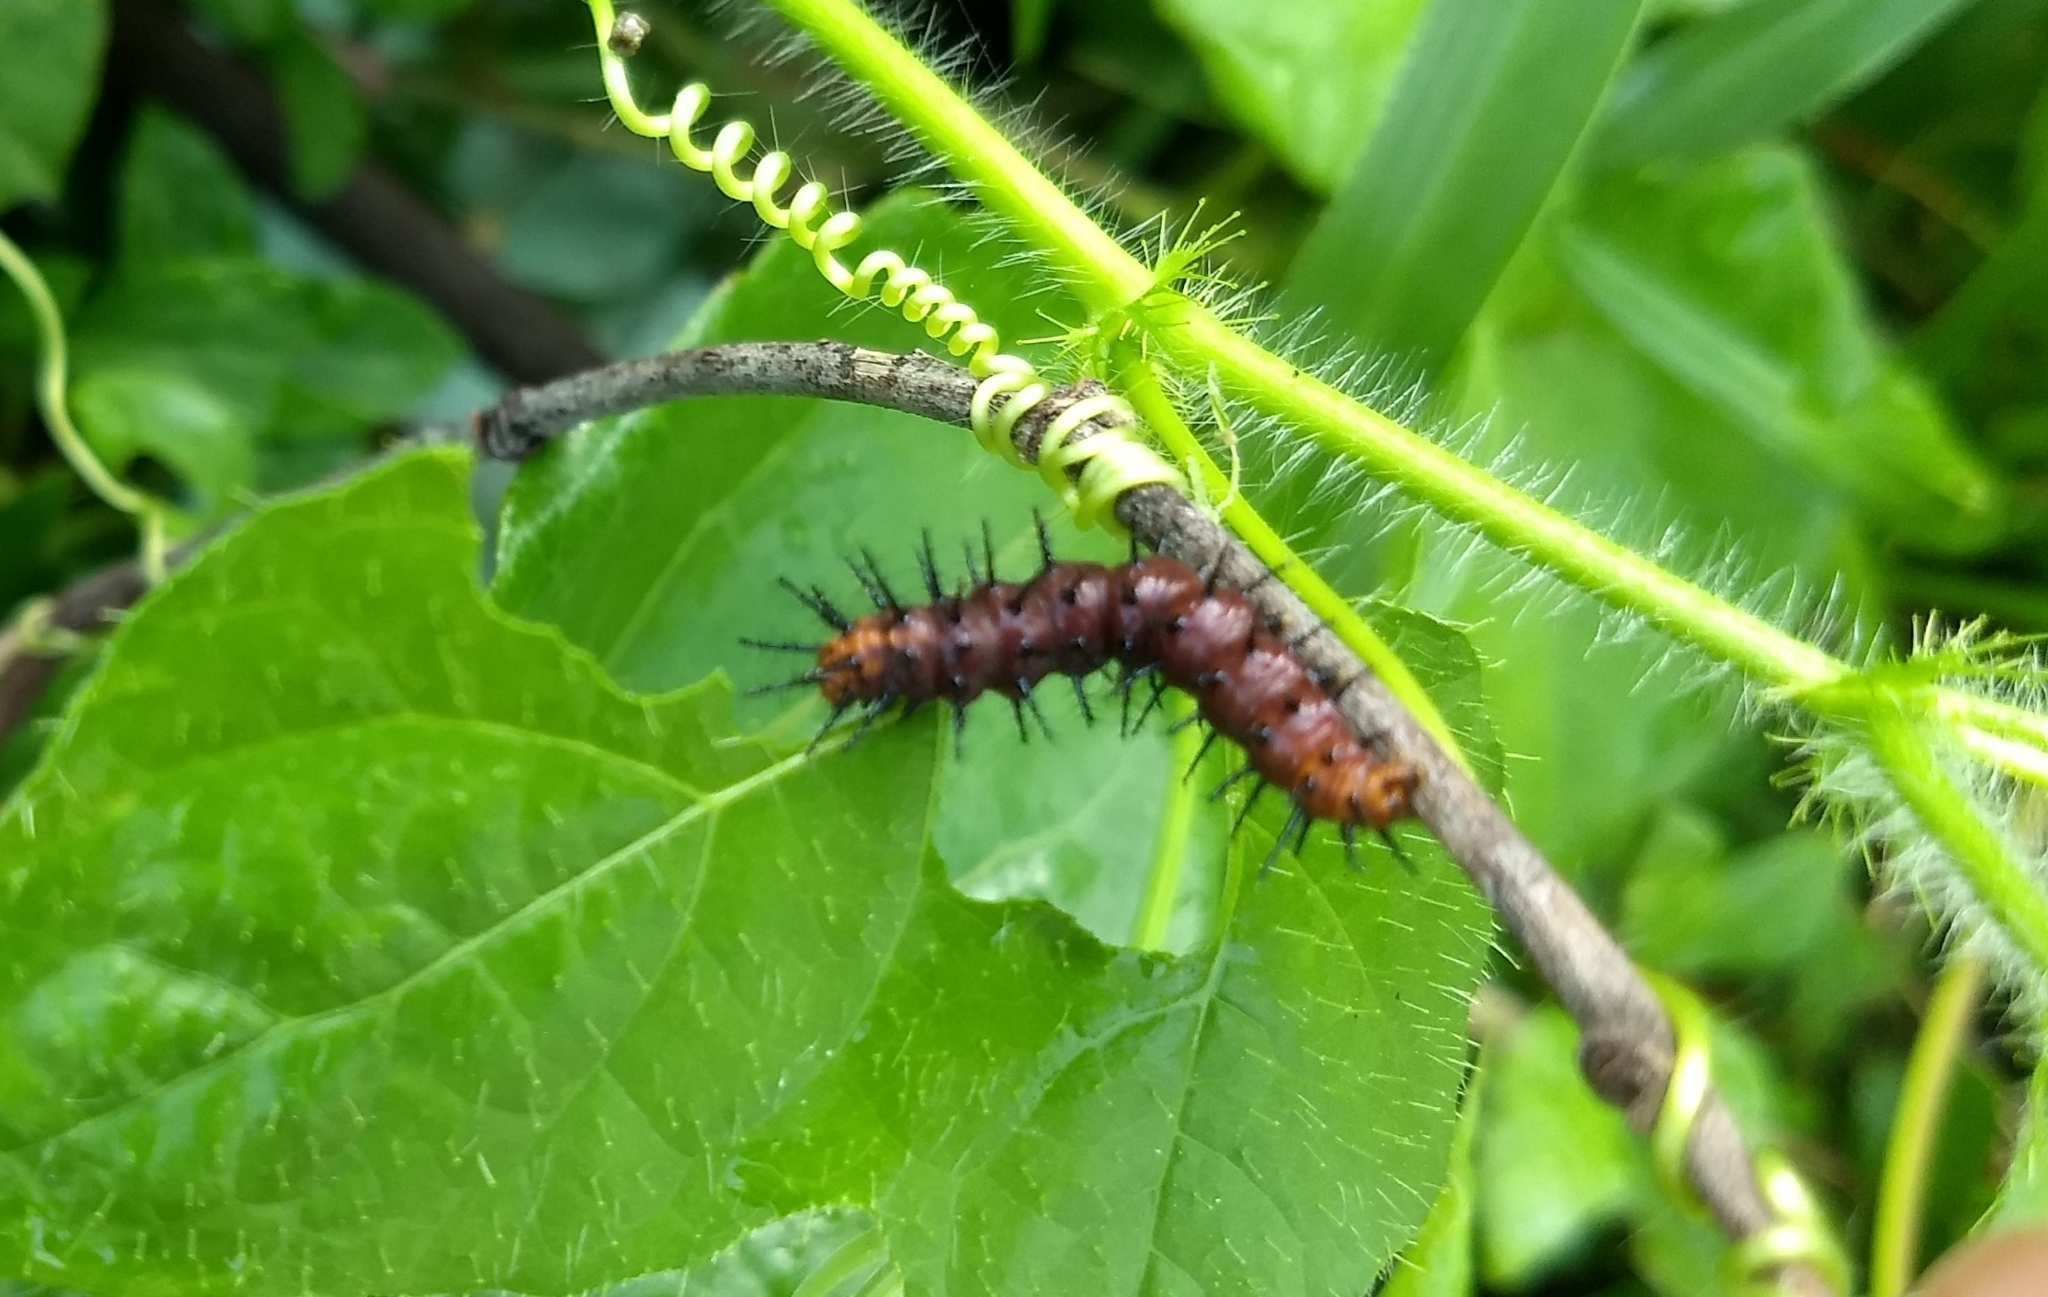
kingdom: Animalia
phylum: Arthropoda
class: Insecta
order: Lepidoptera
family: Nymphalidae
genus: Acraea
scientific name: Acraea terpsicore
